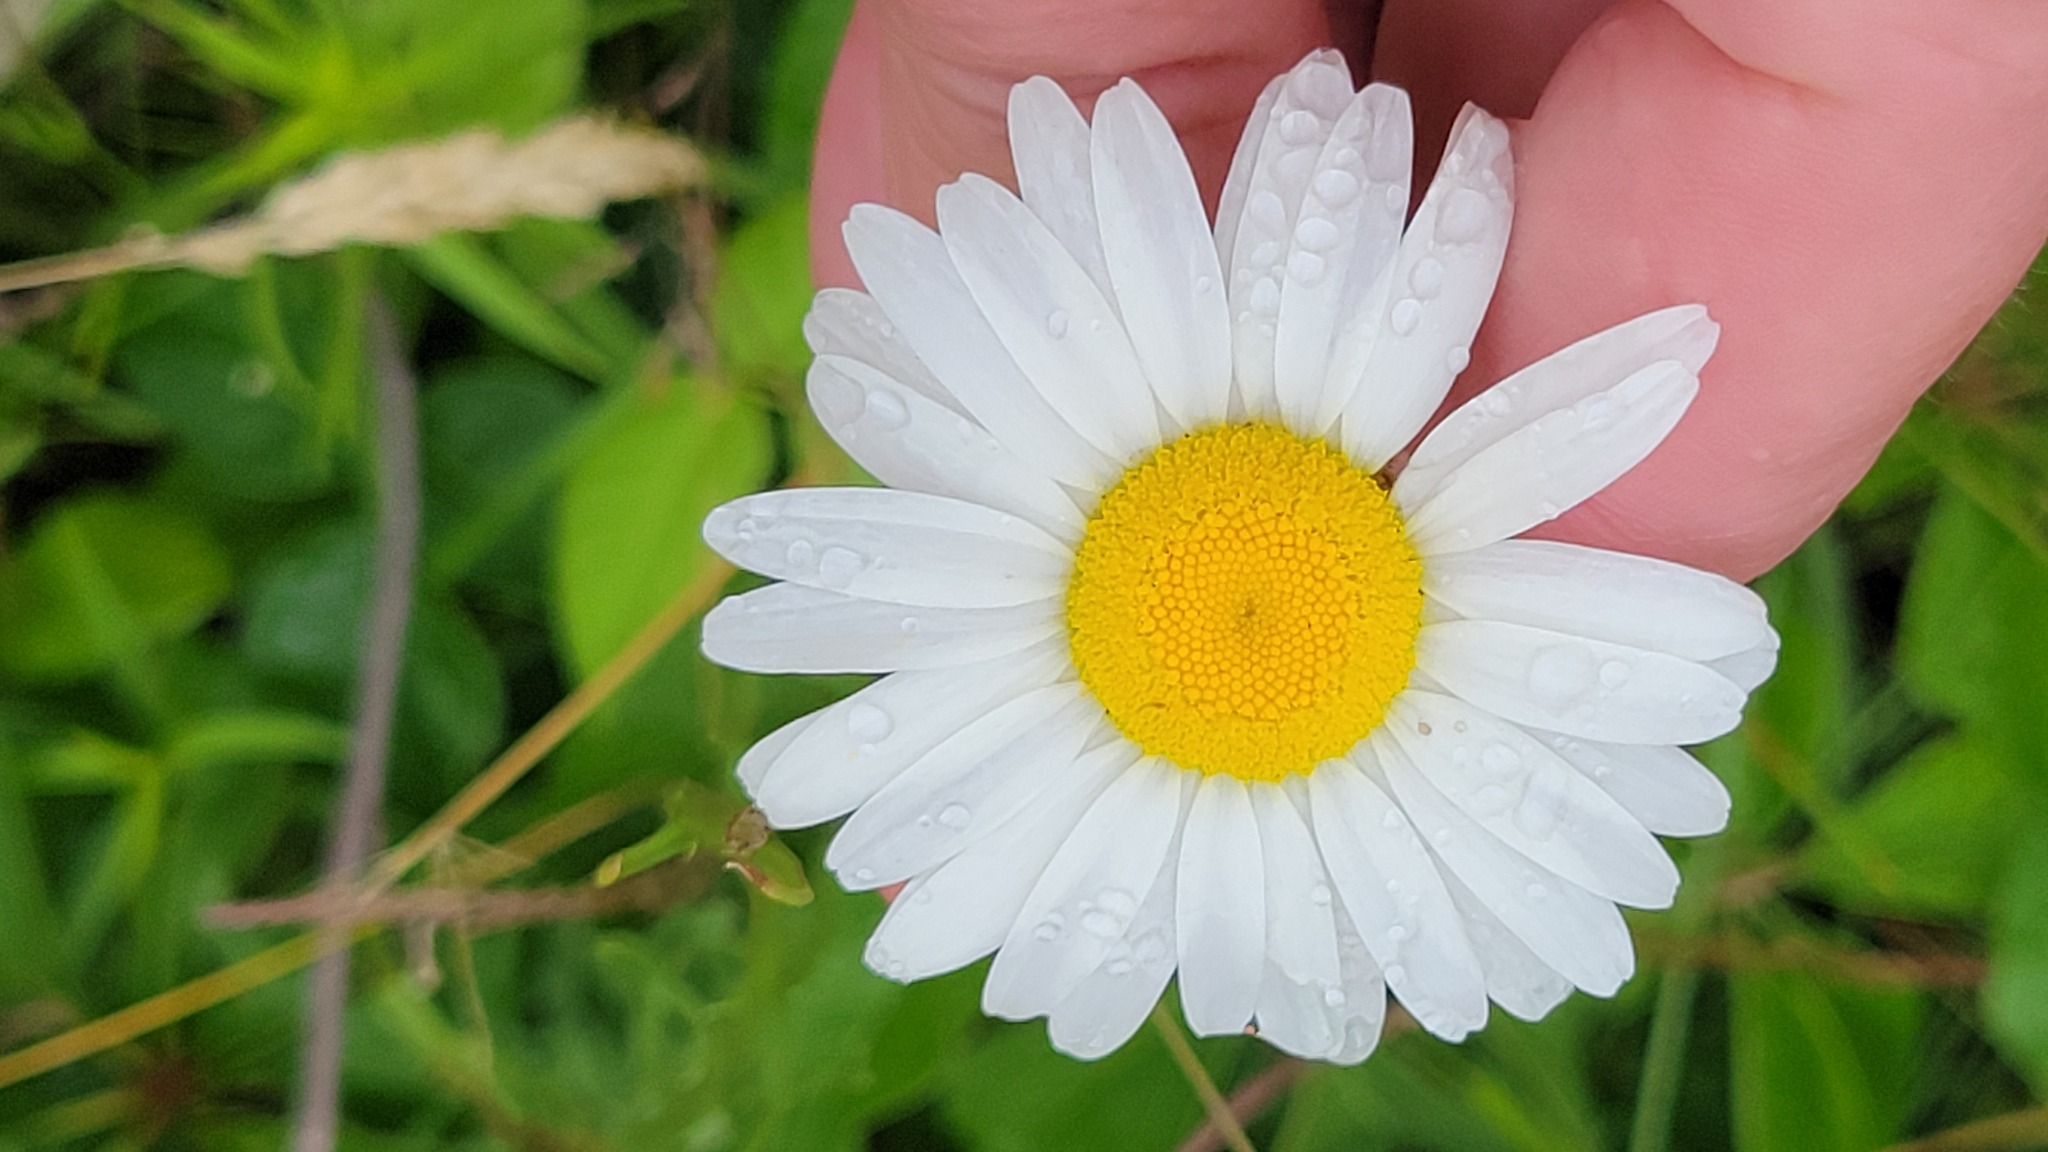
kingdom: Plantae
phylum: Tracheophyta
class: Magnoliopsida
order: Asterales
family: Asteraceae
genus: Leucanthemum
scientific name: Leucanthemum vulgare
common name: Oxeye daisy
